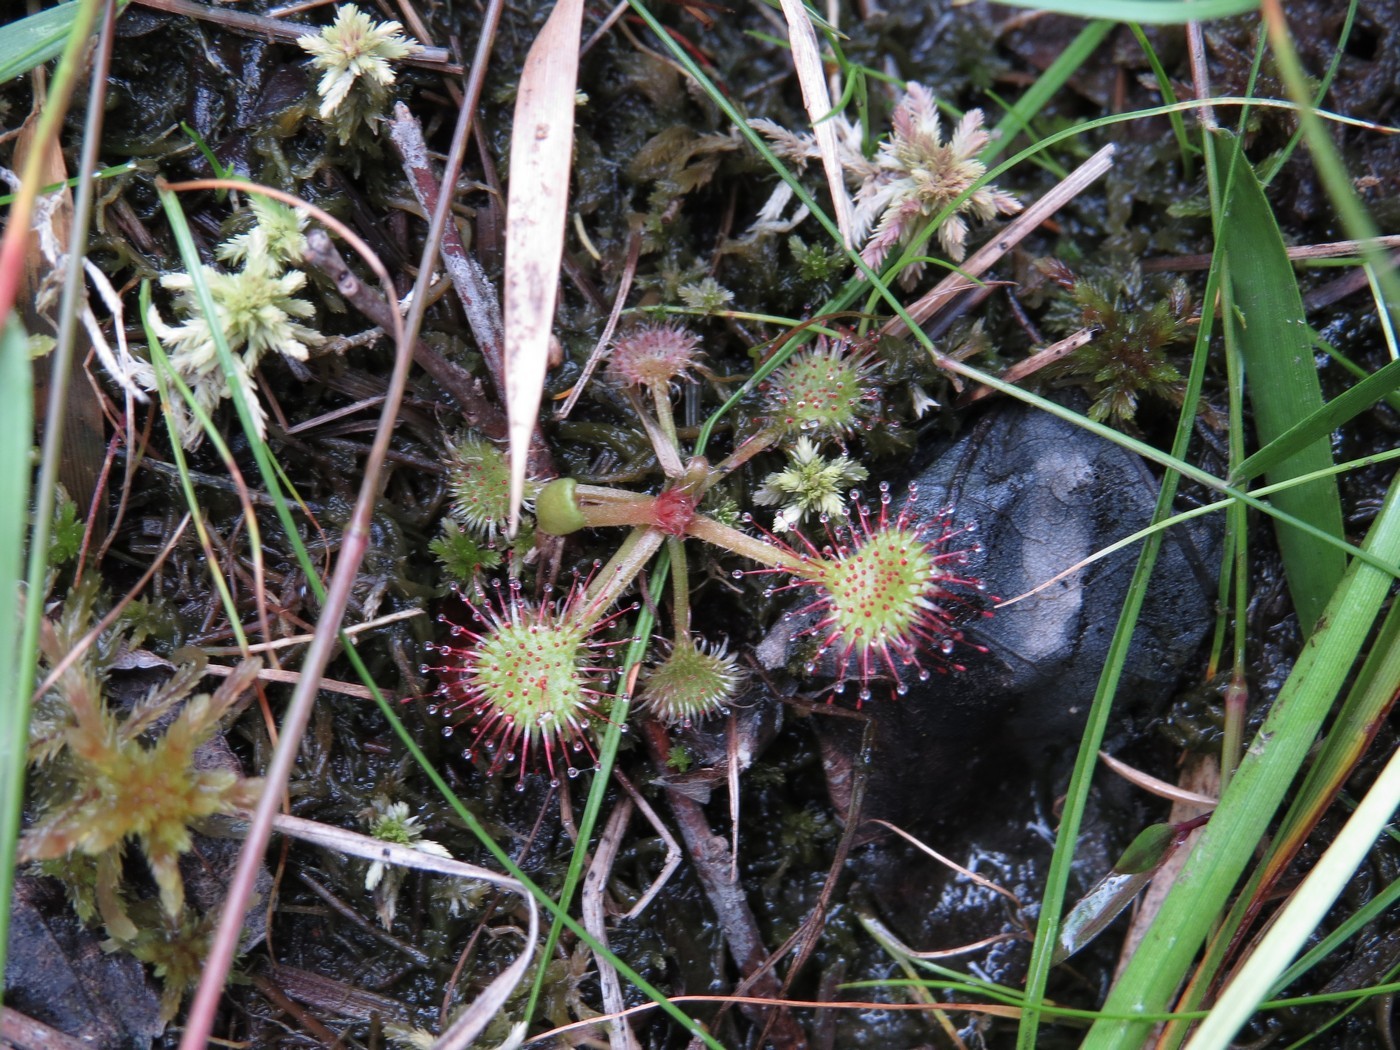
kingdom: Plantae
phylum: Tracheophyta
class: Magnoliopsida
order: Caryophyllales
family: Droseraceae
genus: Drosera
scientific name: Drosera rotundifolia
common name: Round-leaved sundew
